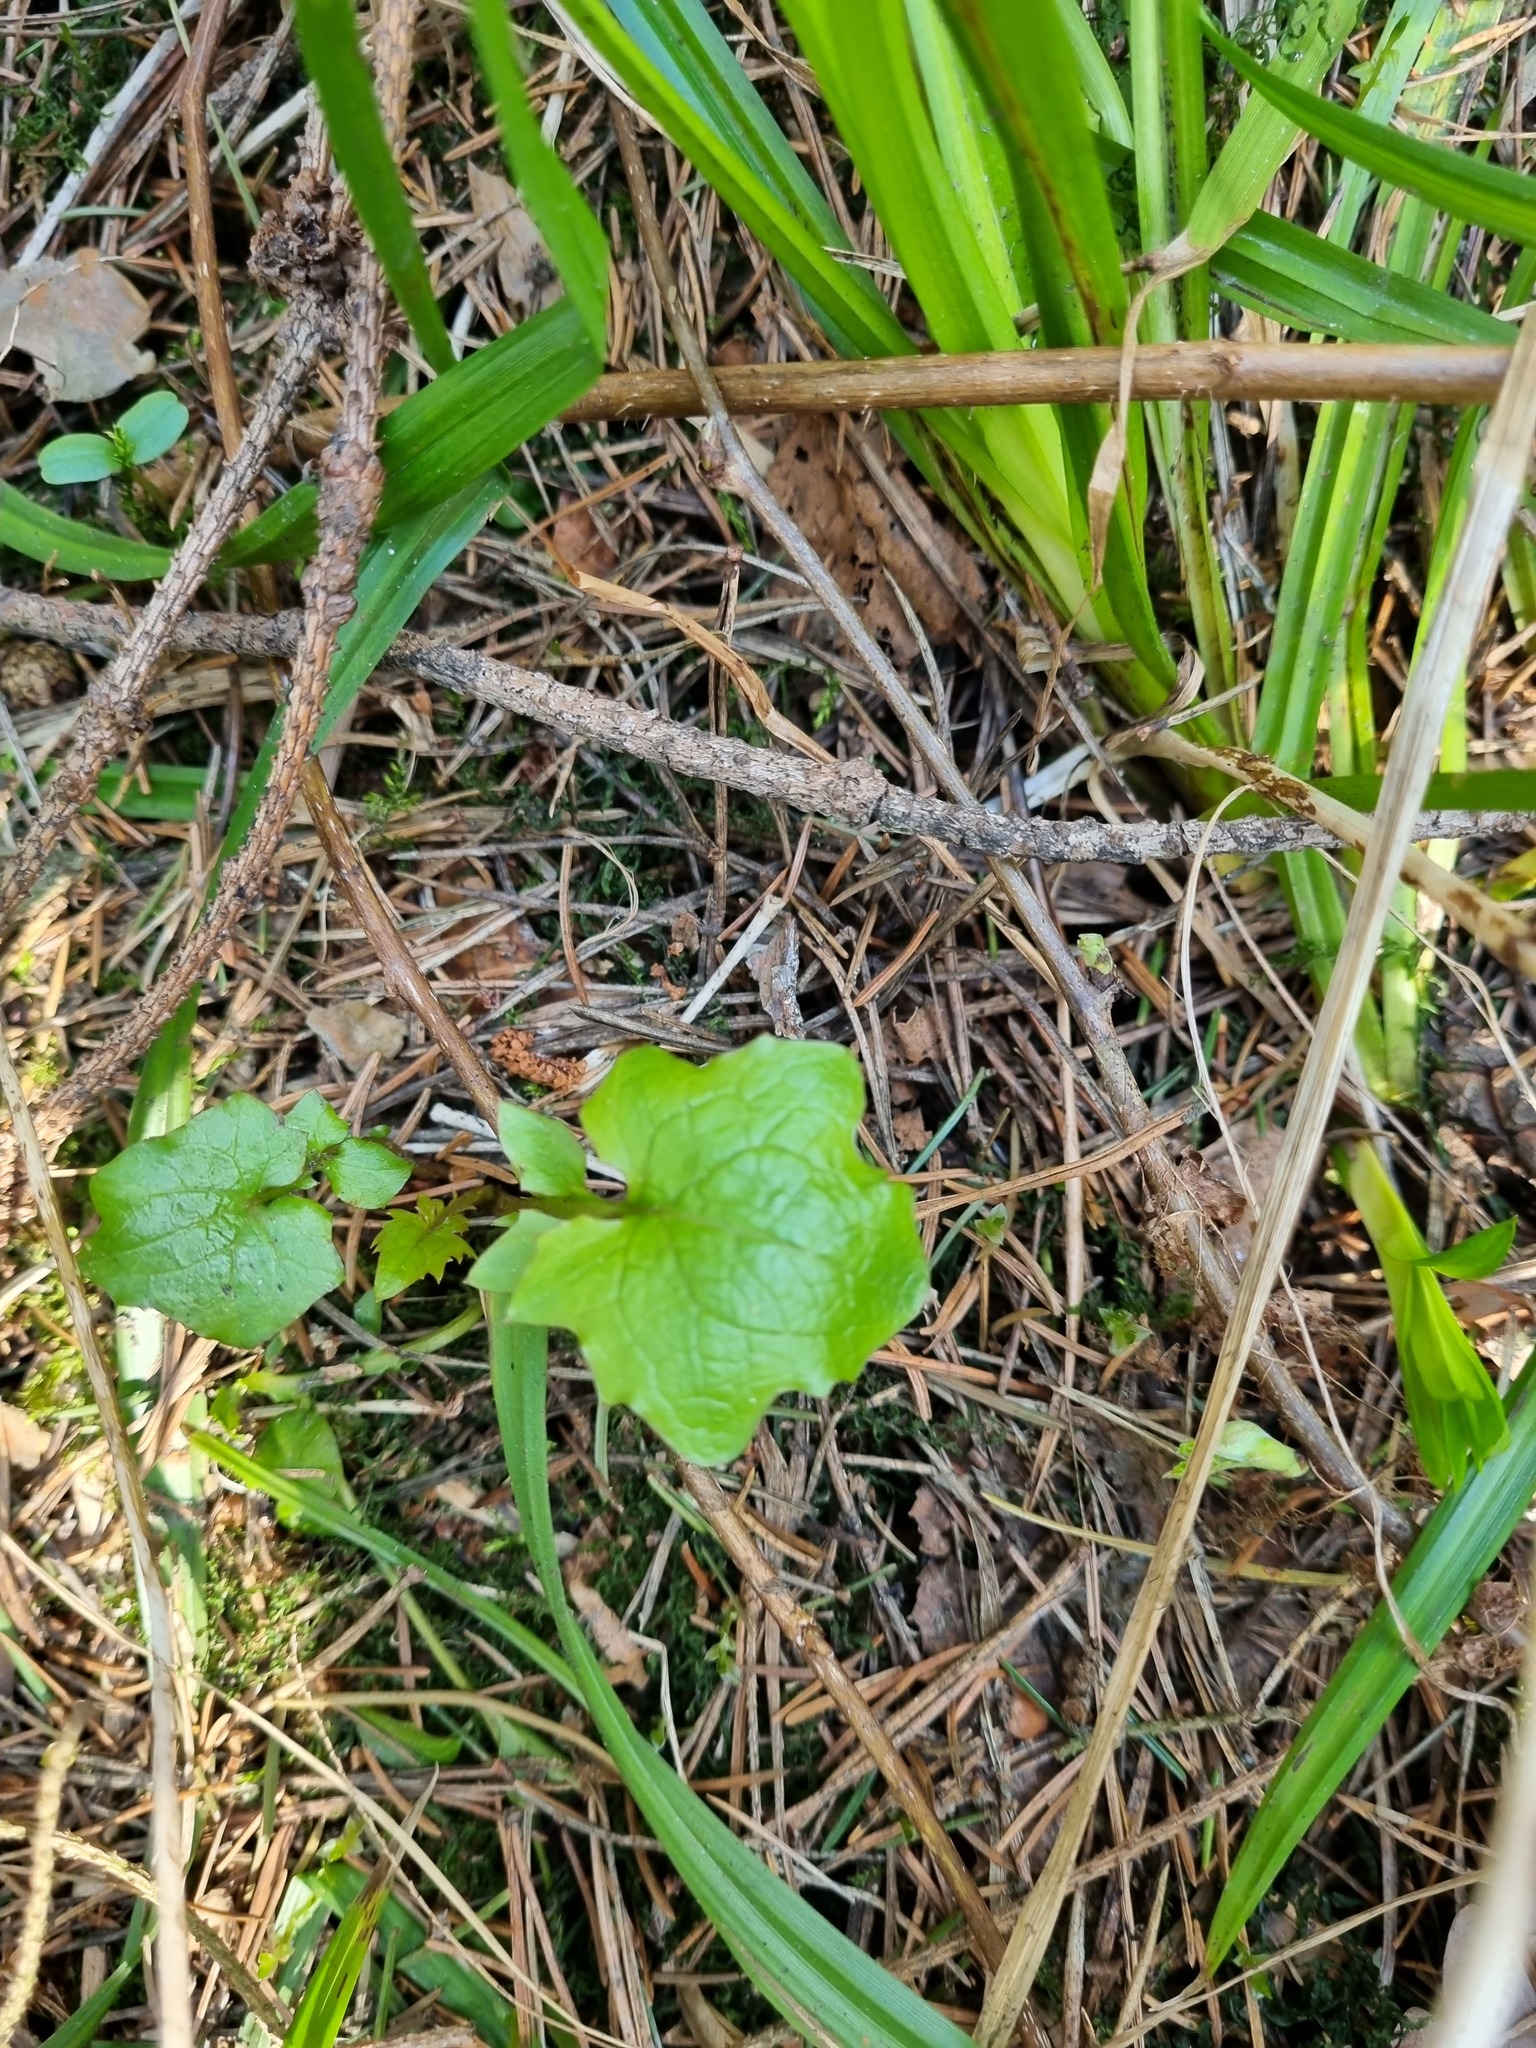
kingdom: Plantae
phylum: Tracheophyta
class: Magnoliopsida
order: Asterales
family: Asteraceae
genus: Mycelis
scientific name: Mycelis muralis
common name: Wall lettuce
